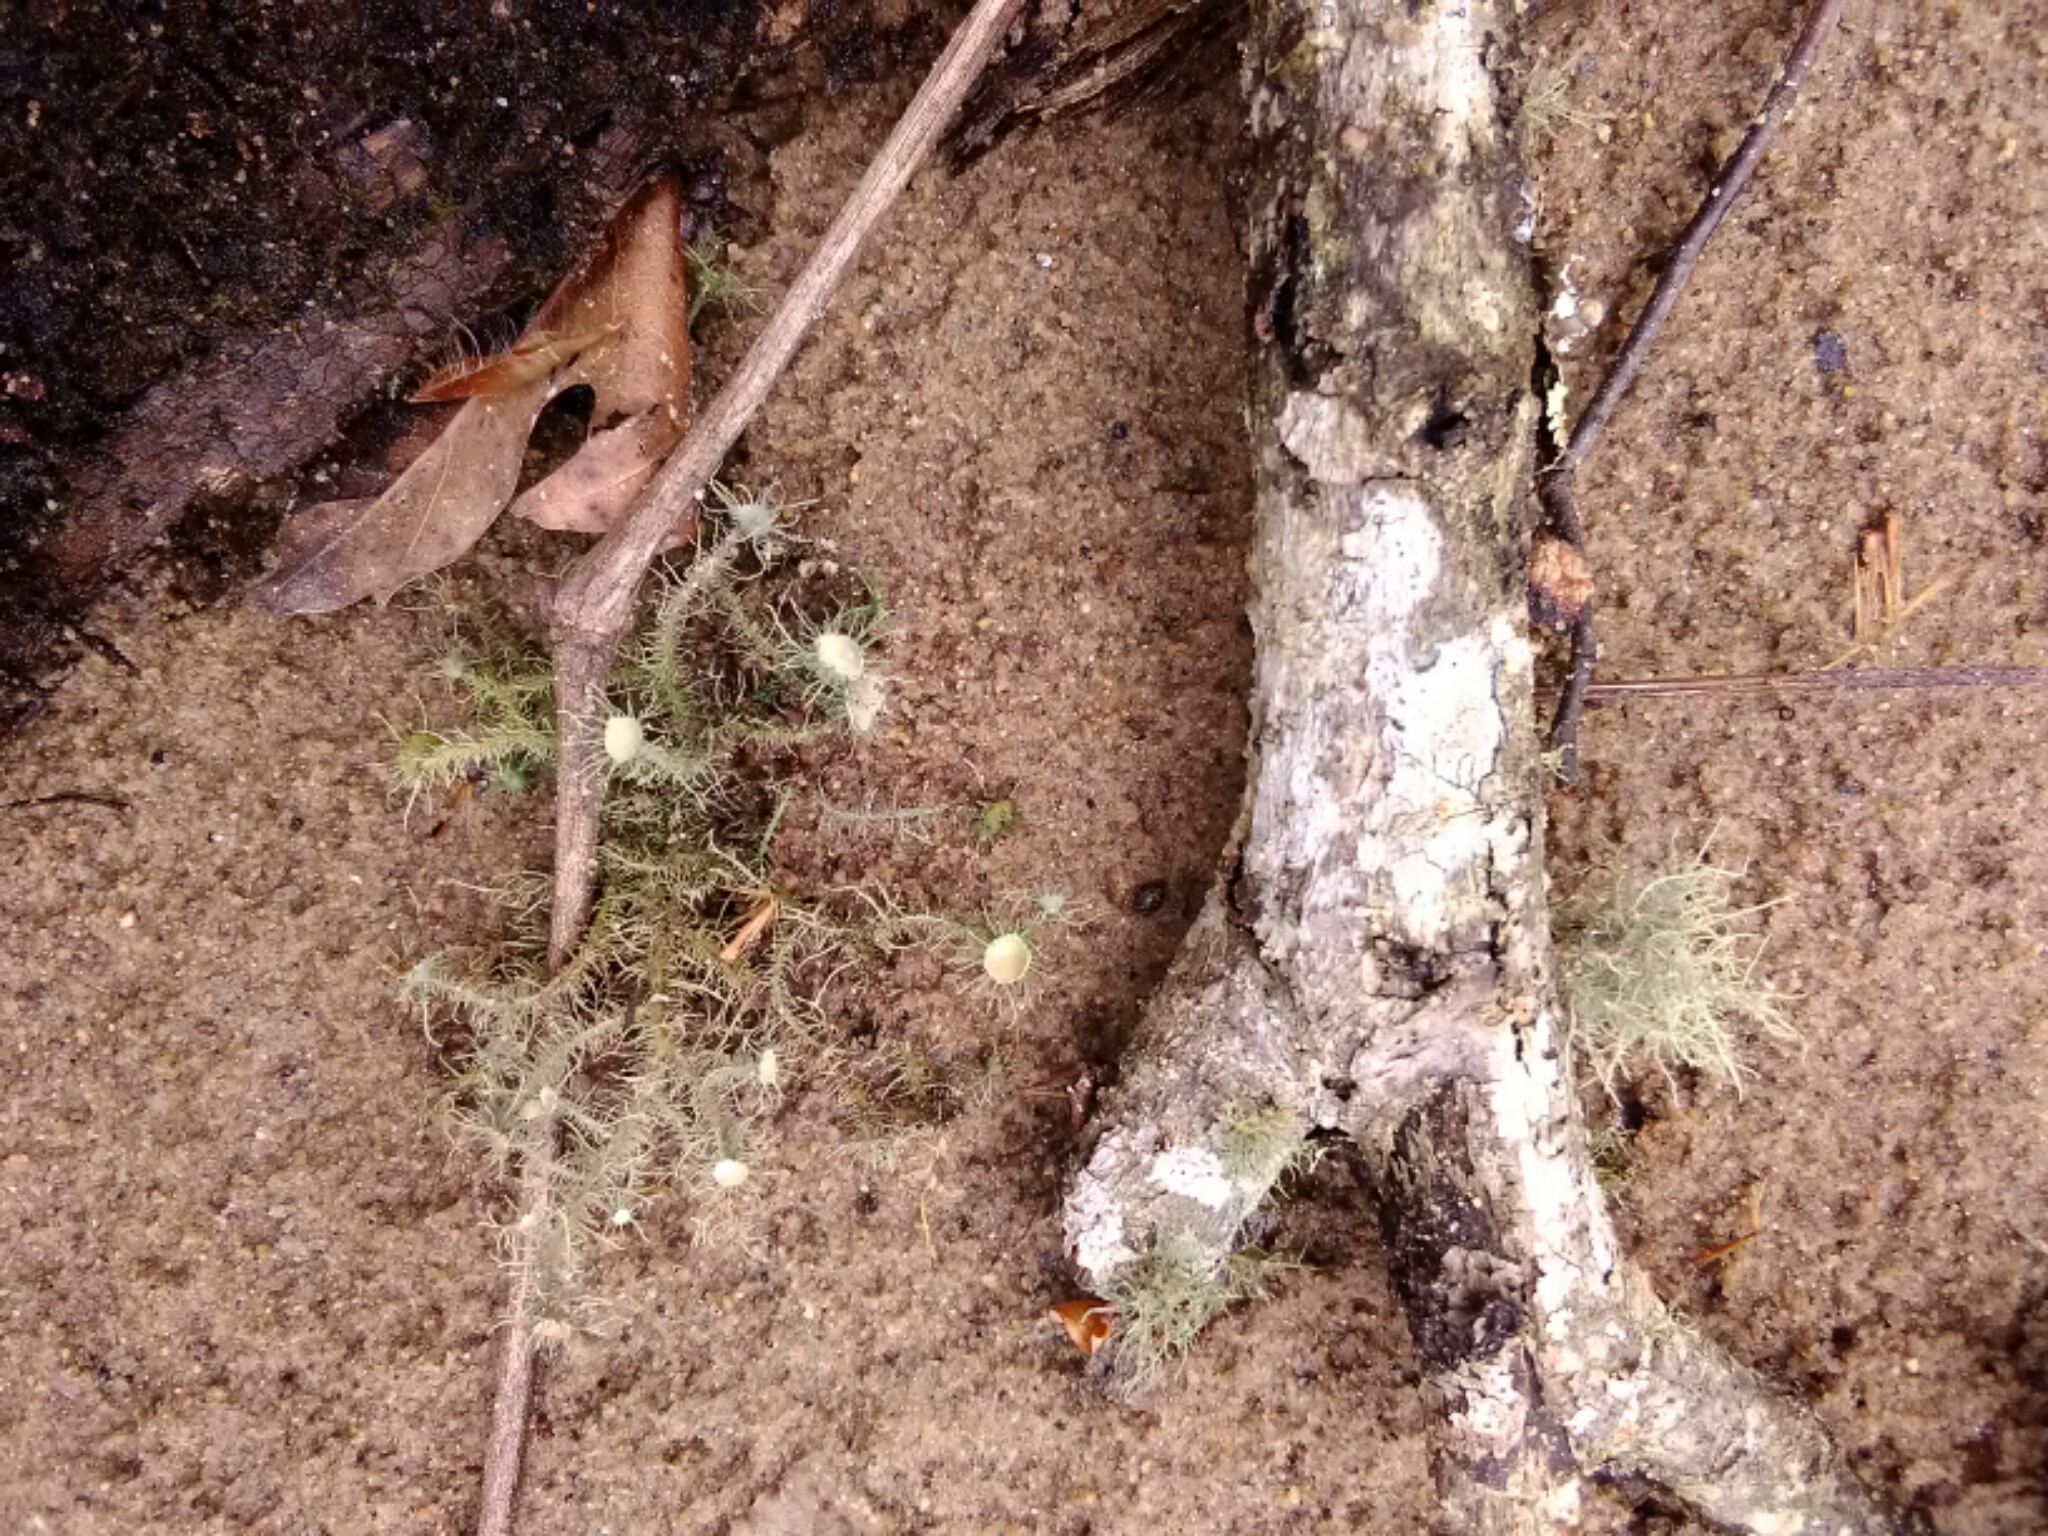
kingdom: Fungi
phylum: Ascomycota
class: Lecanoromycetes
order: Lecanorales
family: Parmeliaceae
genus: Usnea
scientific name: Usnea strigosa
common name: Bushy beard lichen
